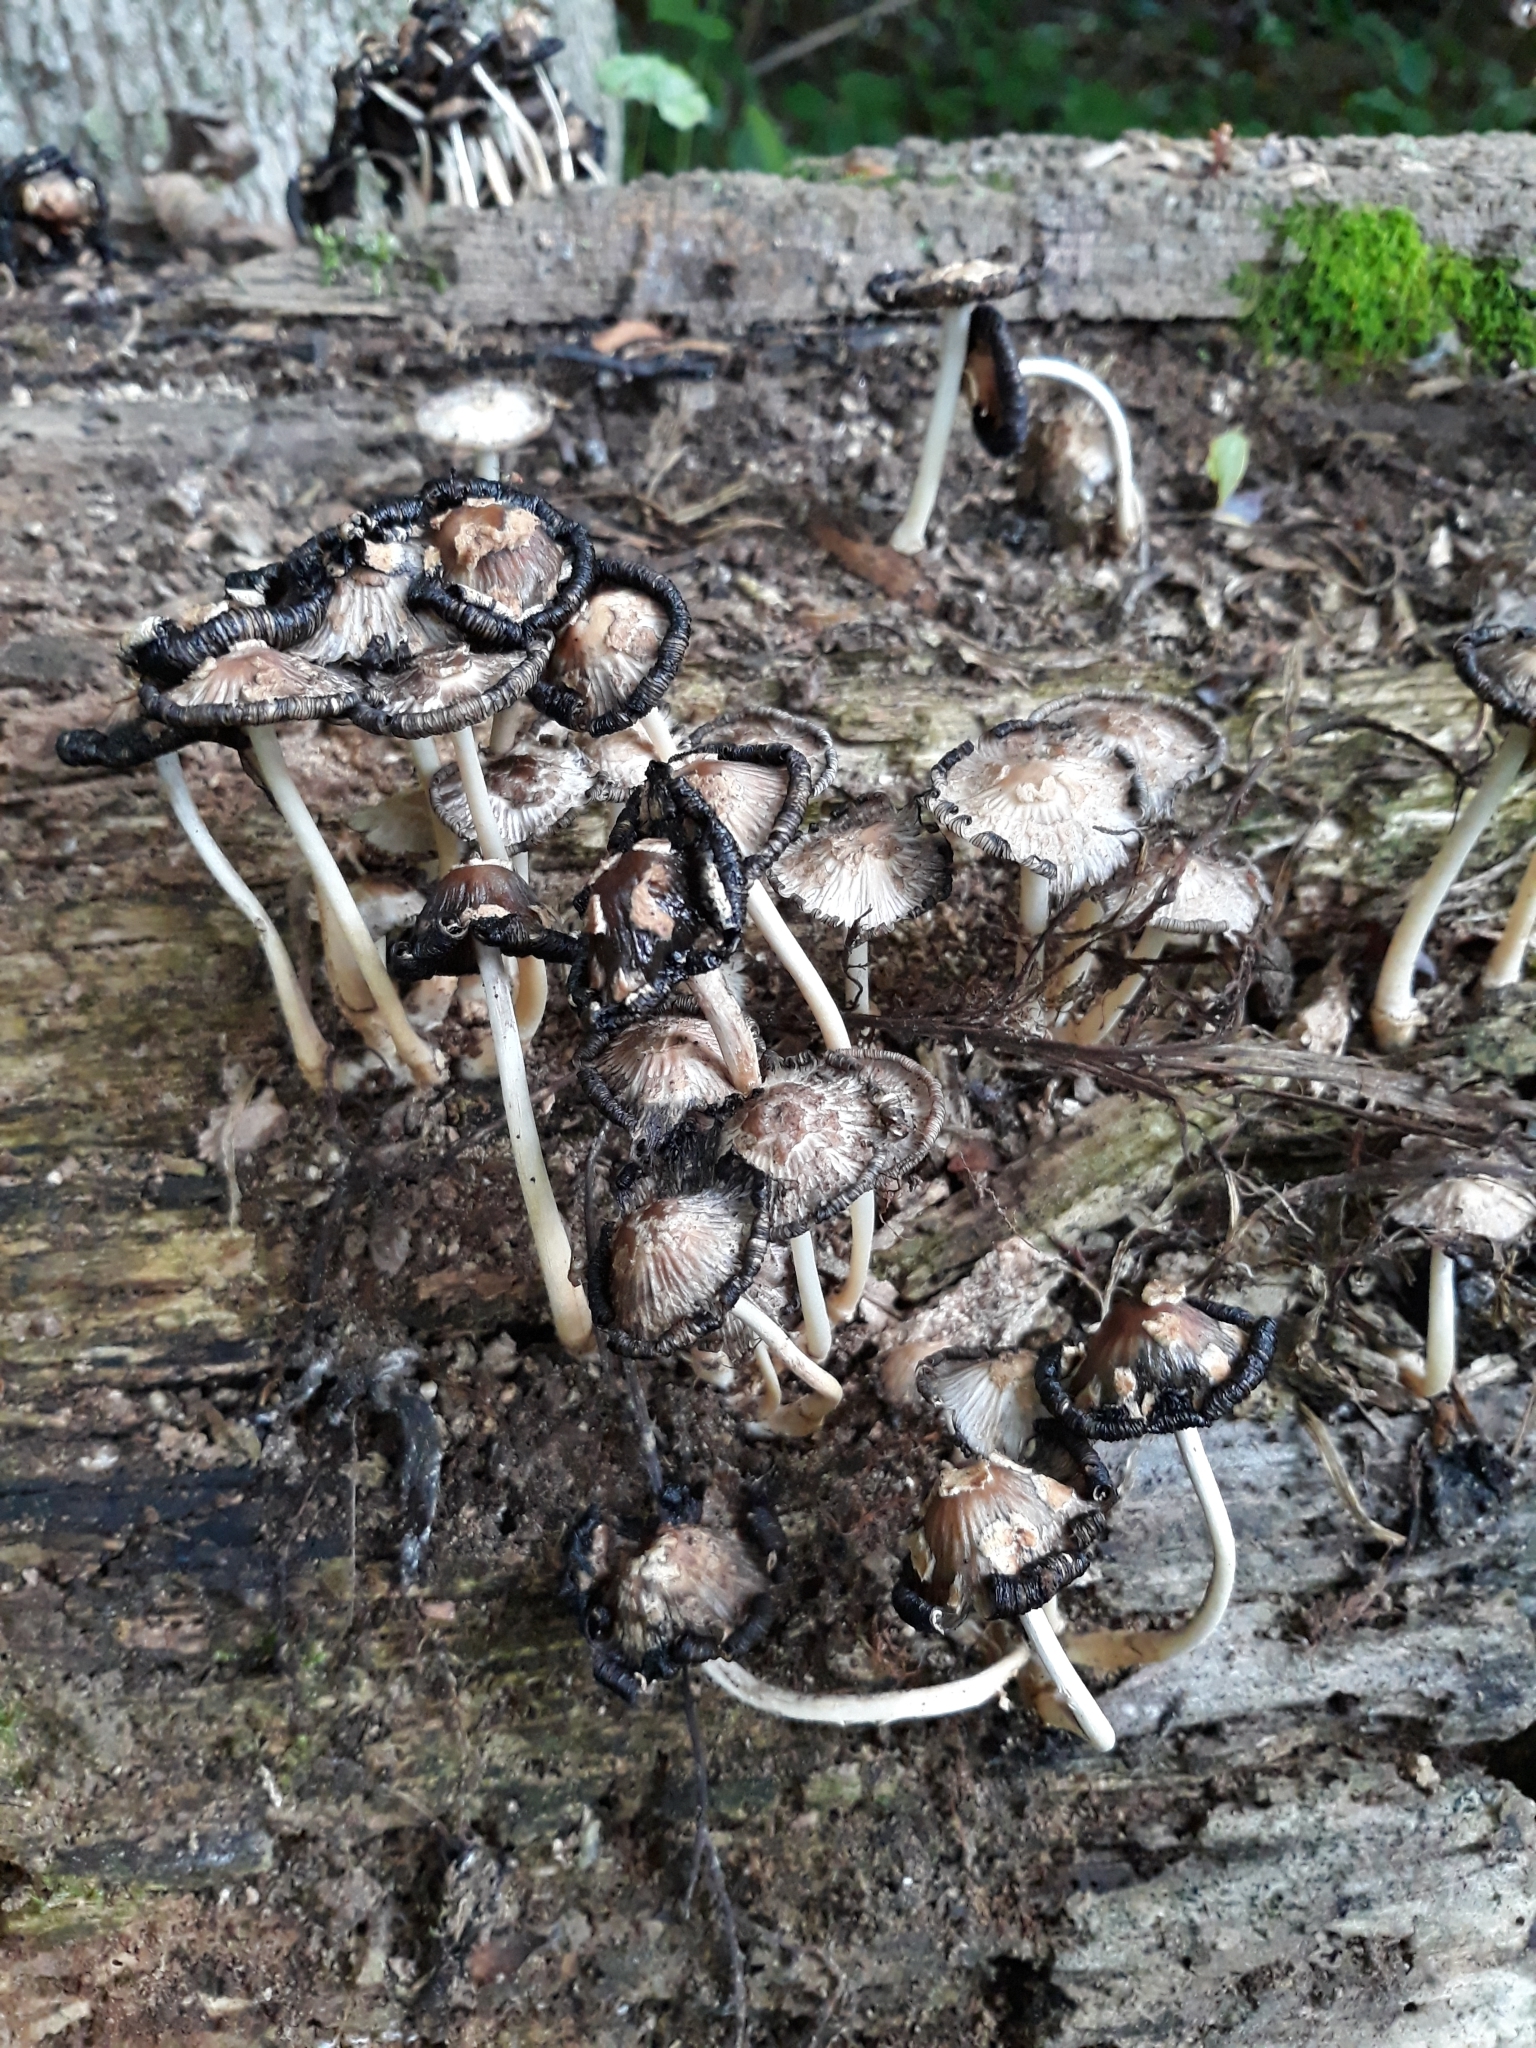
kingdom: Fungi
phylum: Basidiomycota
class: Agaricomycetes
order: Agaricales
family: Psathyrellaceae
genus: Coprinopsis
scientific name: Coprinopsis variegata
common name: Scaly ink cap
